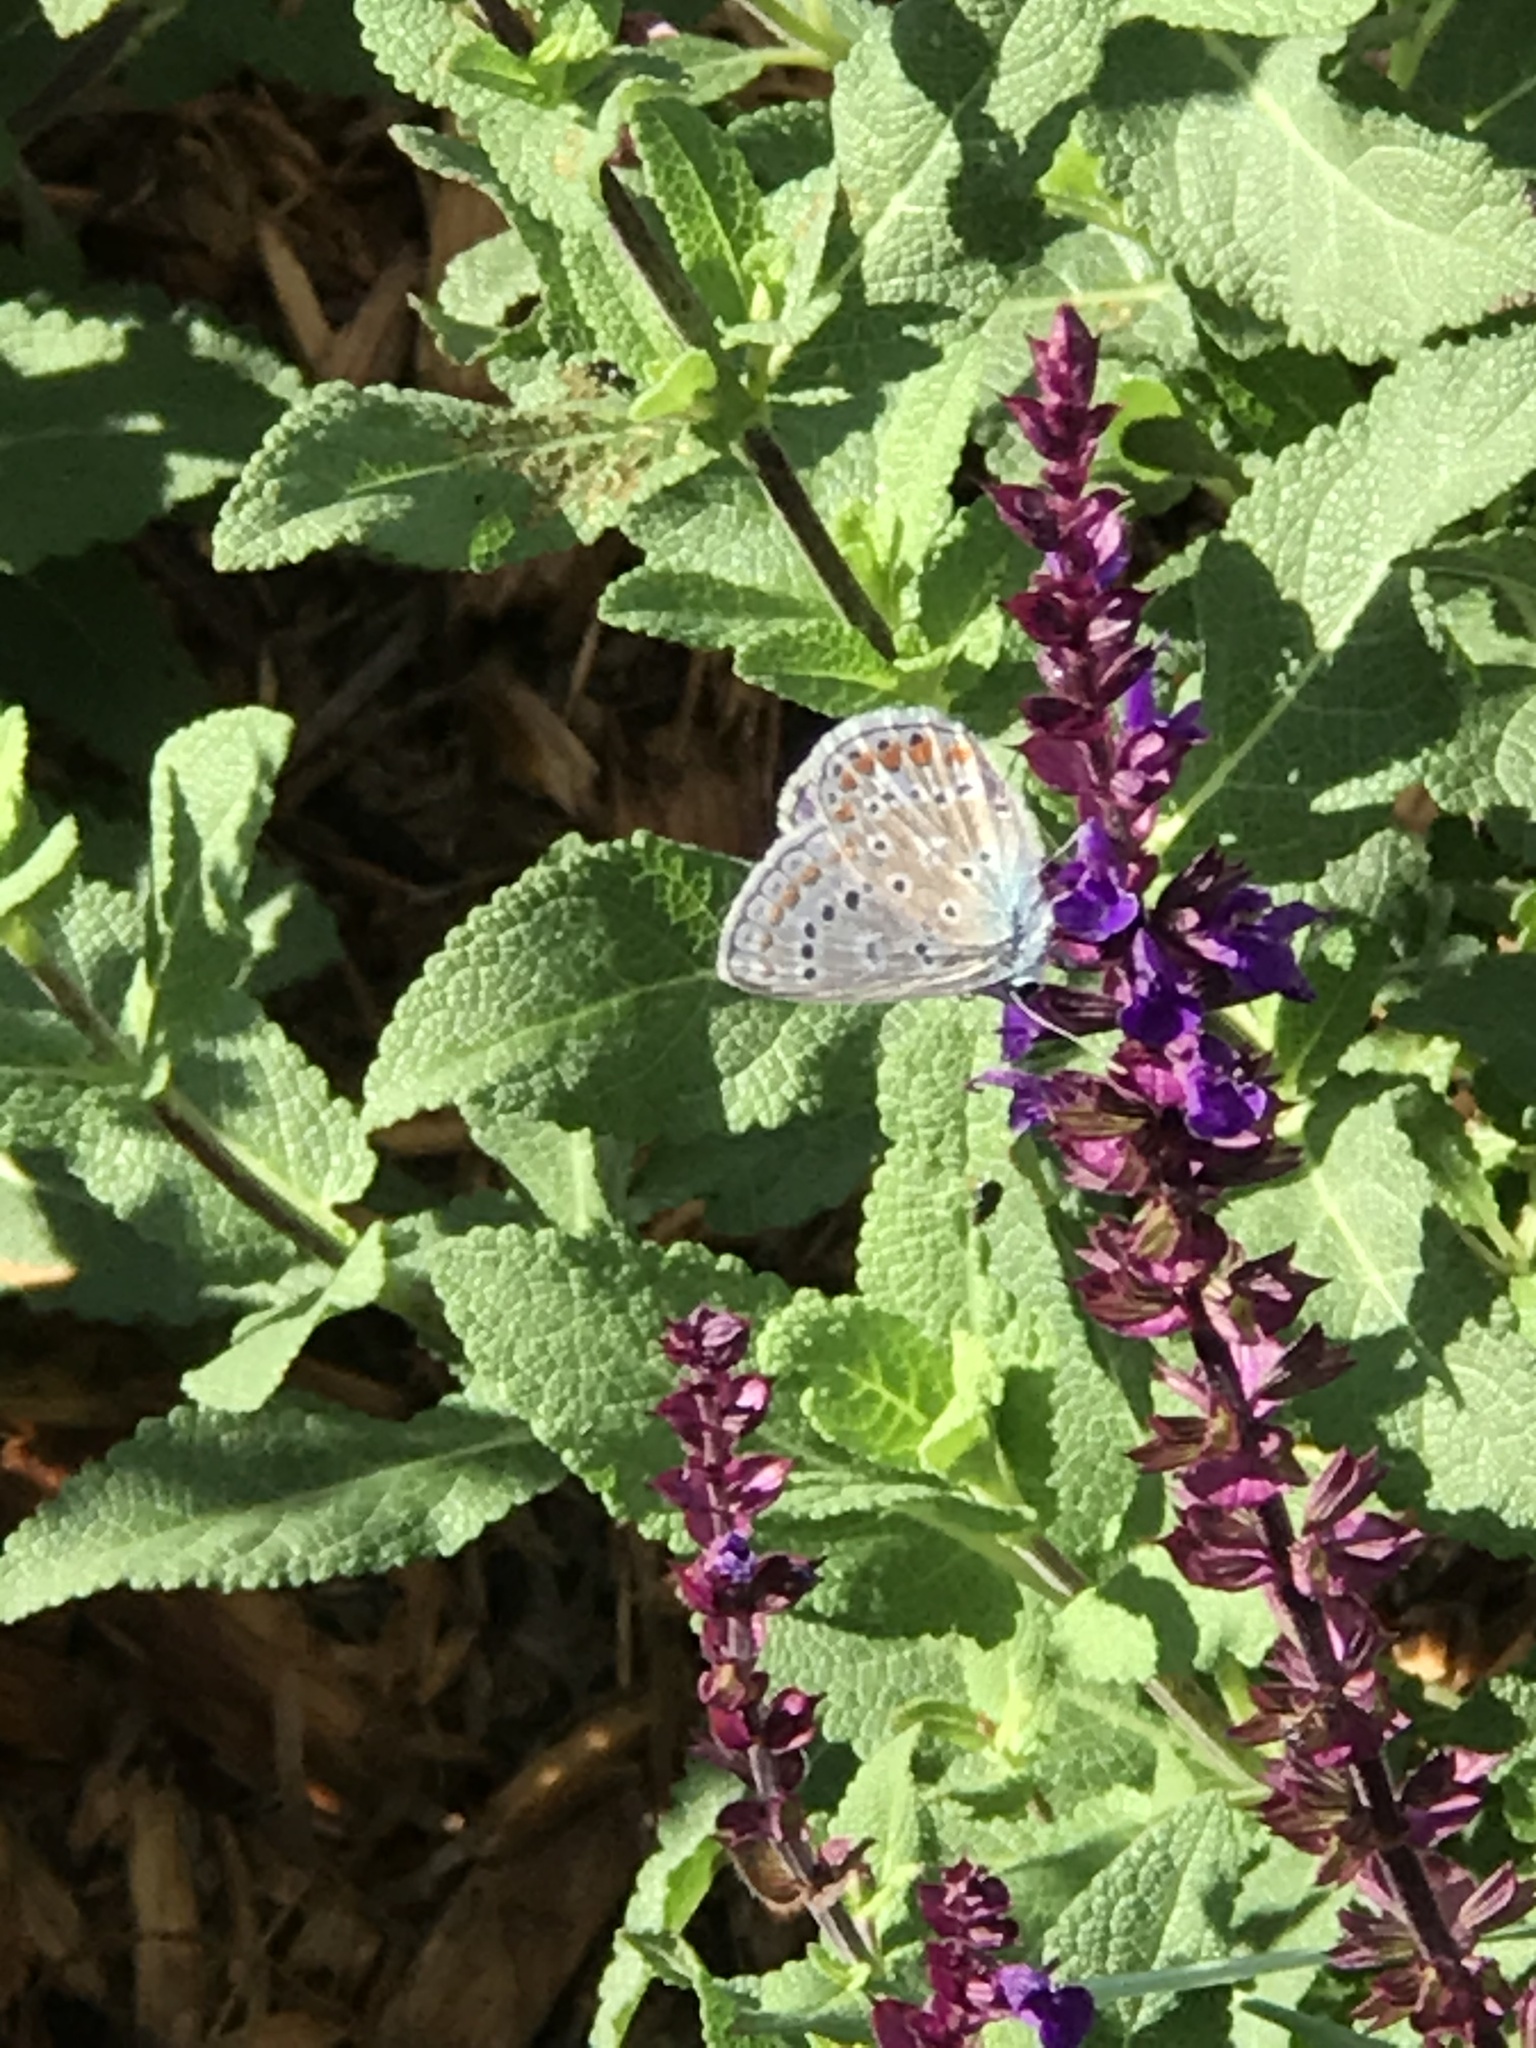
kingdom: Animalia
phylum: Arthropoda
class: Insecta
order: Lepidoptera
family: Lycaenidae
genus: Polyommatus
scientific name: Polyommatus icarus
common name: Common blue
